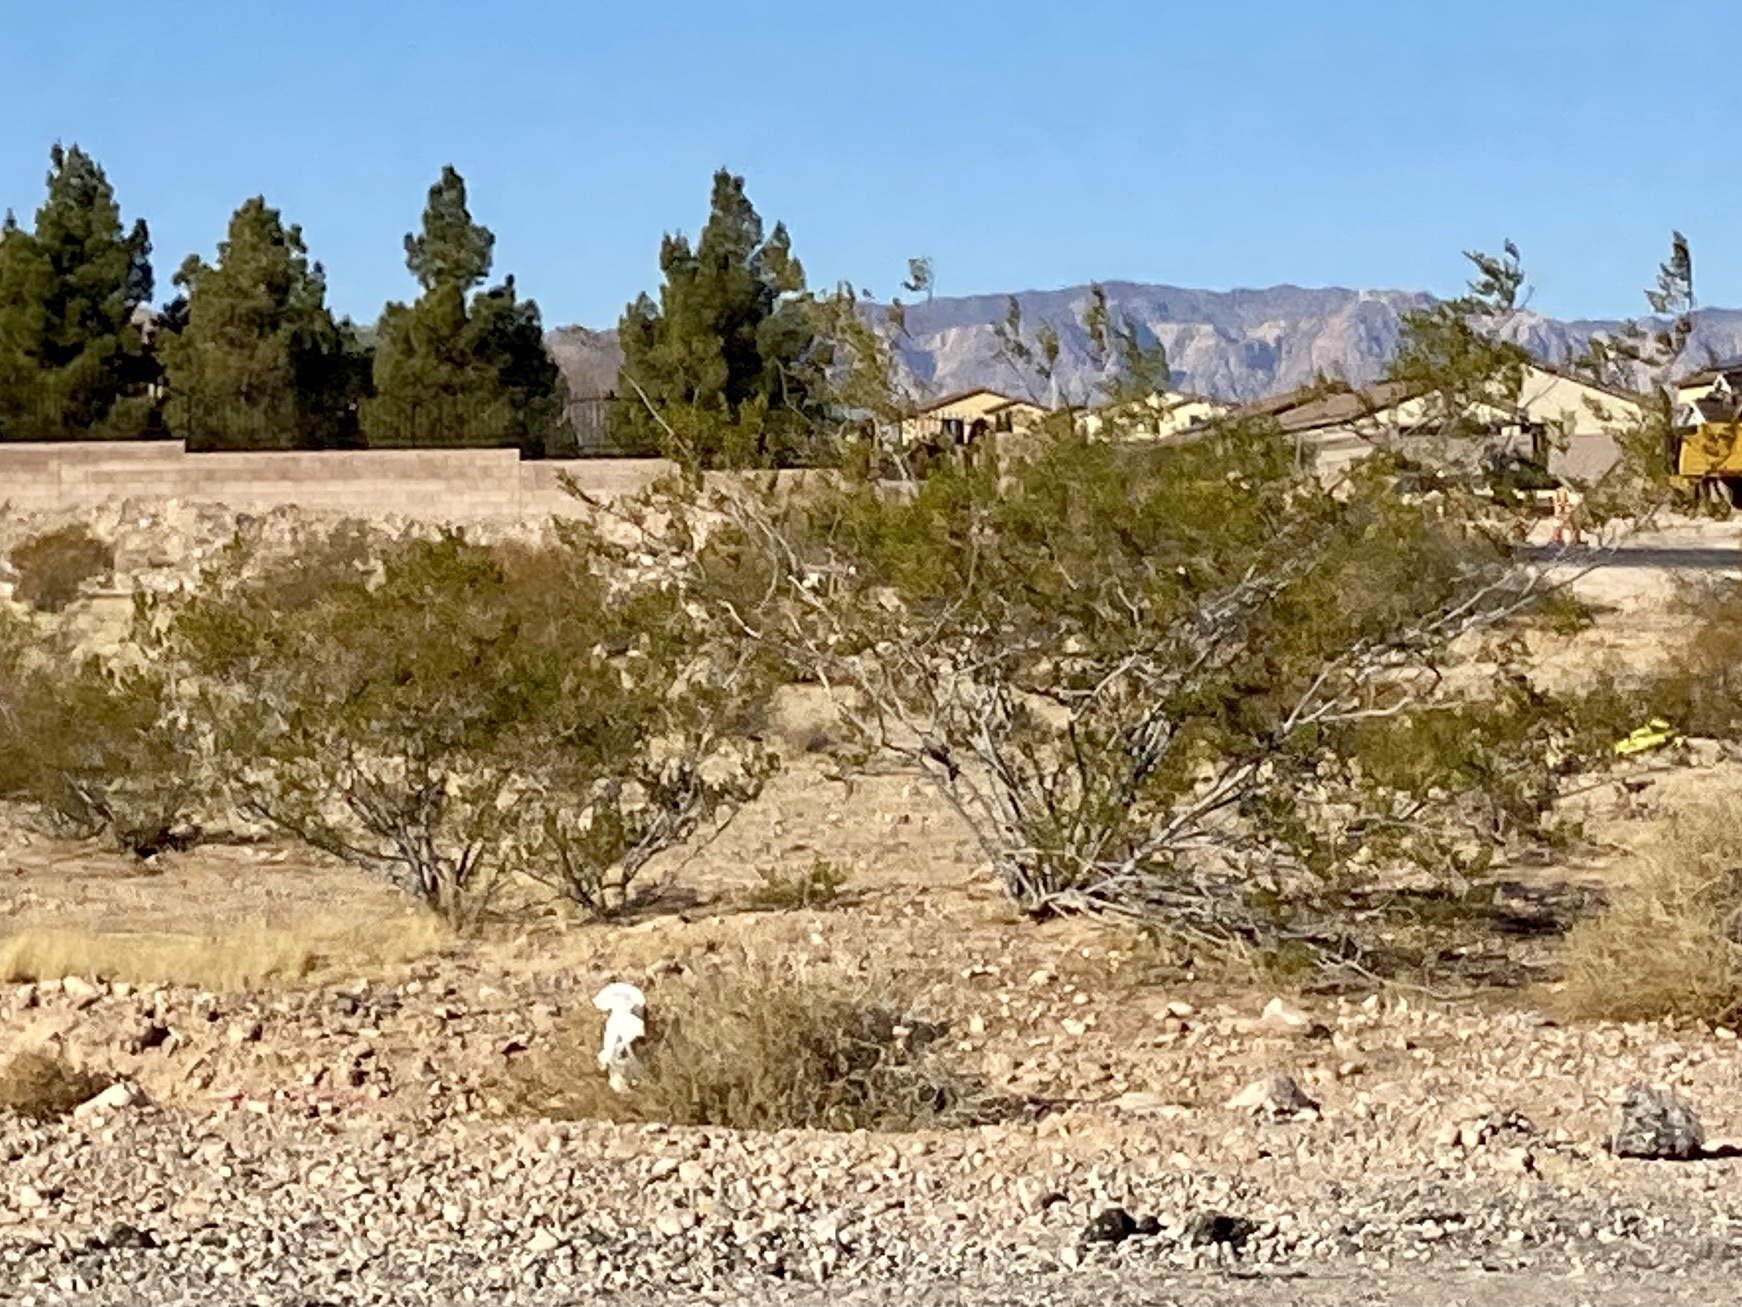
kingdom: Plantae
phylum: Tracheophyta
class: Magnoliopsida
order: Zygophyllales
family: Zygophyllaceae
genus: Larrea
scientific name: Larrea tridentata
